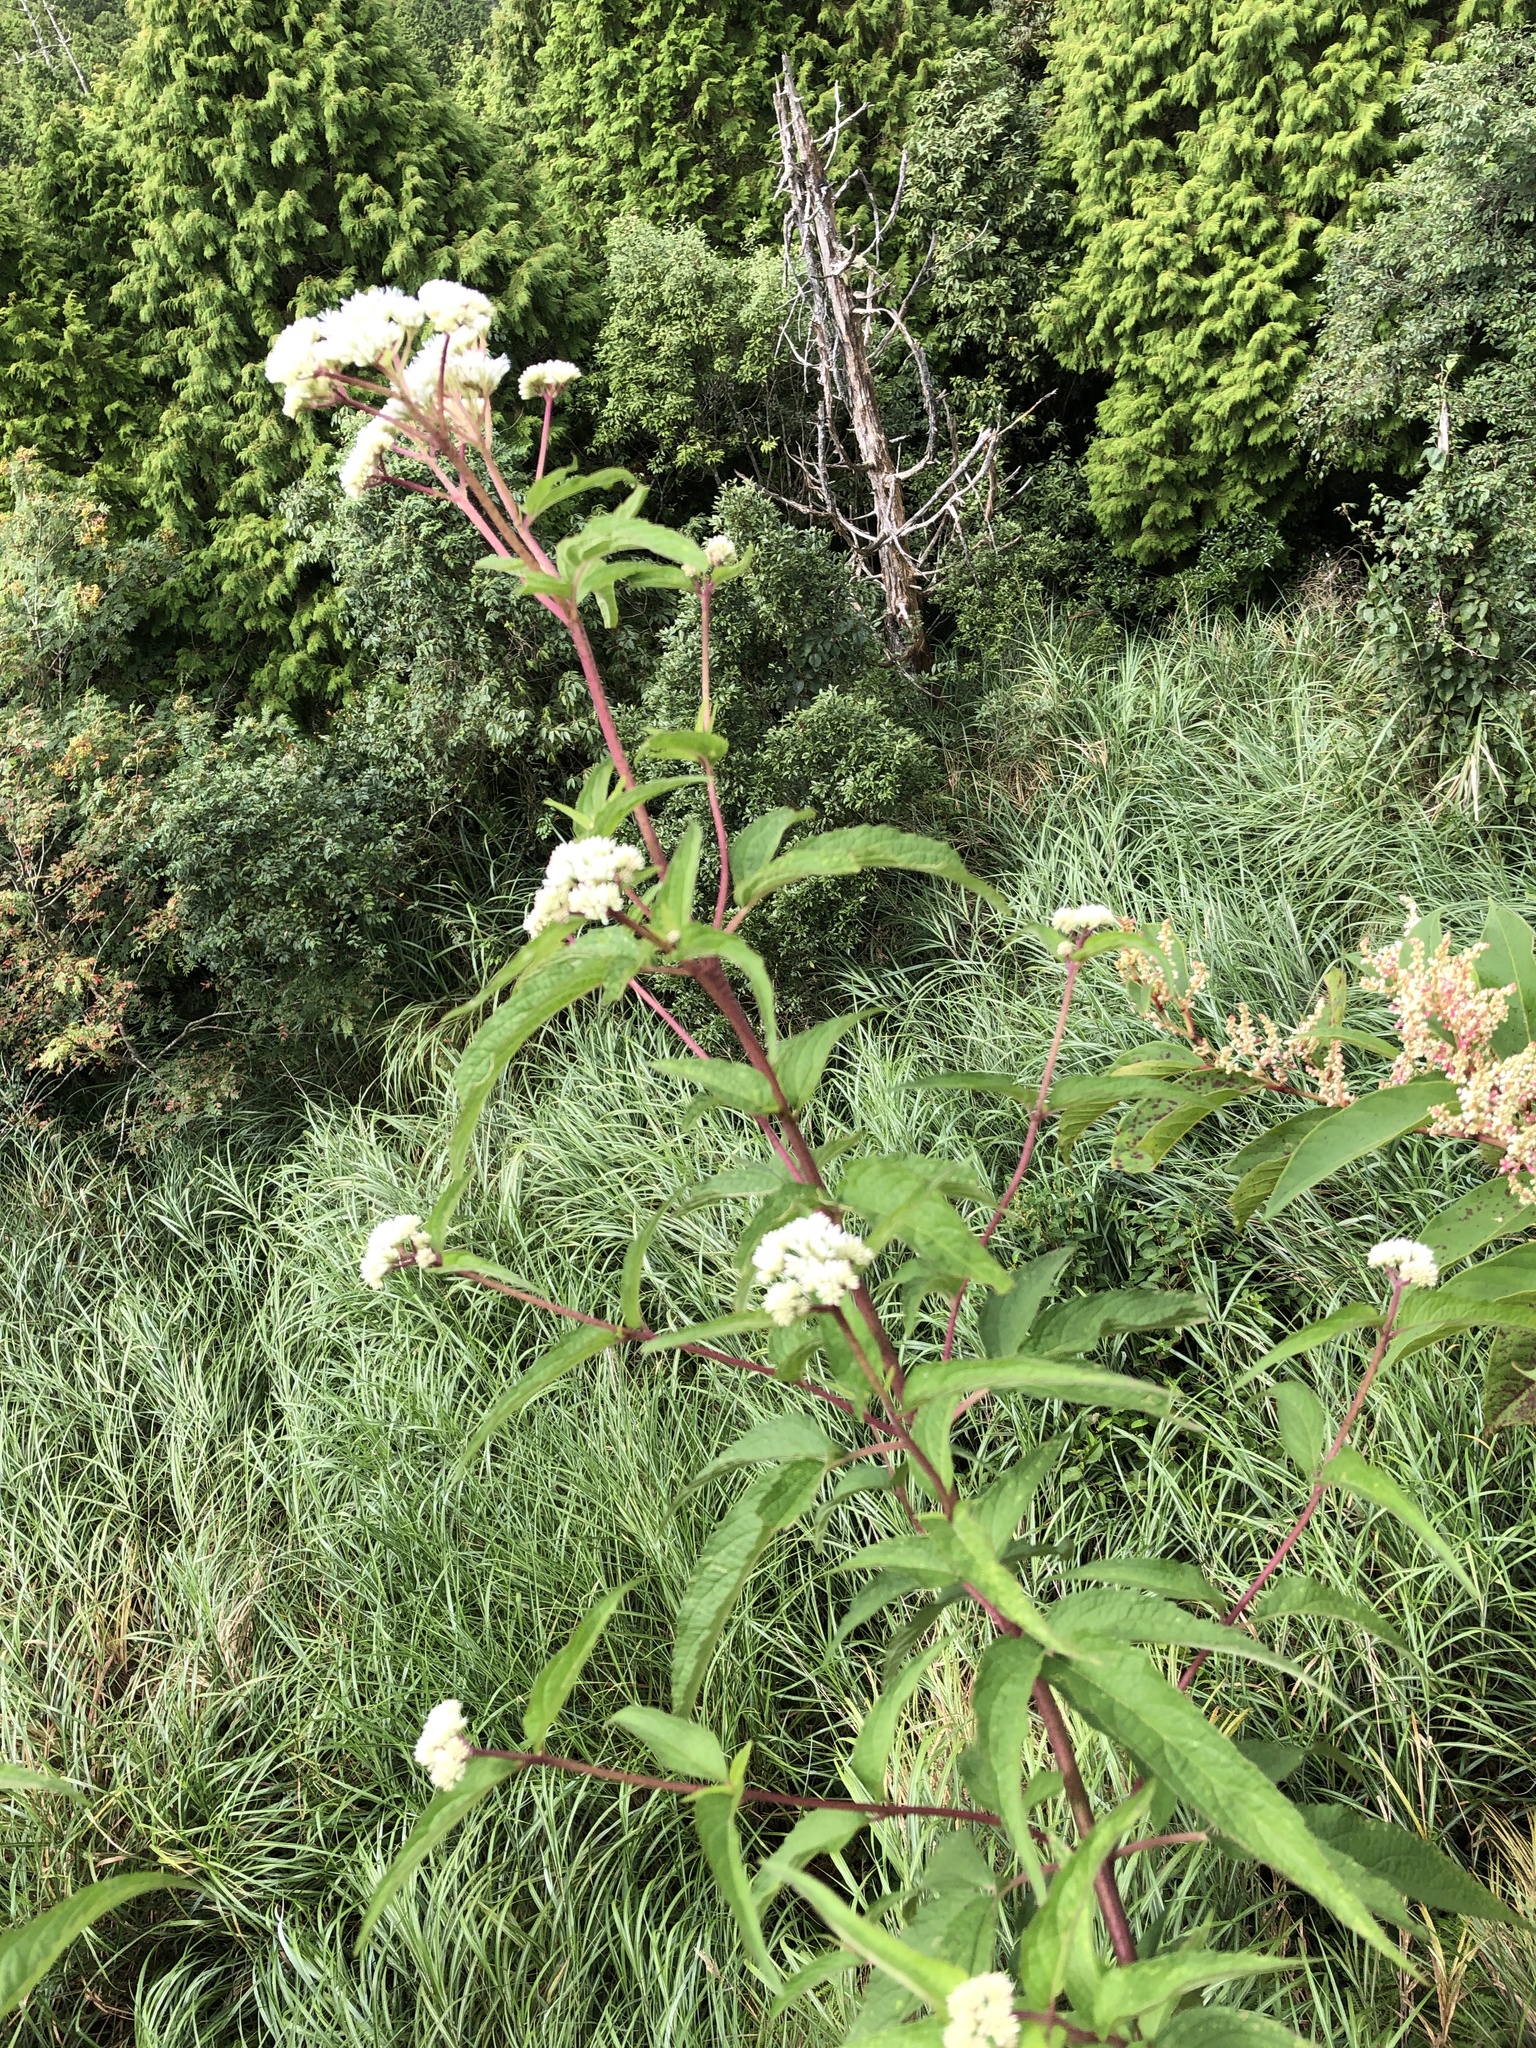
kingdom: Plantae
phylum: Tracheophyta
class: Magnoliopsida
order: Asterales
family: Asteraceae
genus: Eupatorium
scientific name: Eupatorium formosanum
